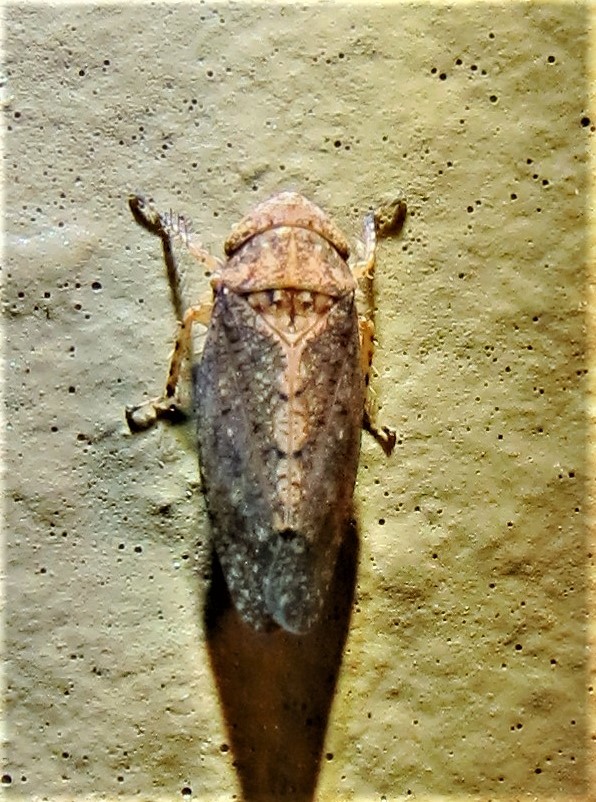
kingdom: Animalia
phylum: Arthropoda
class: Insecta
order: Hemiptera
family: Cicadellidae
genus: Excultanus
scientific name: Excultanus excultus
